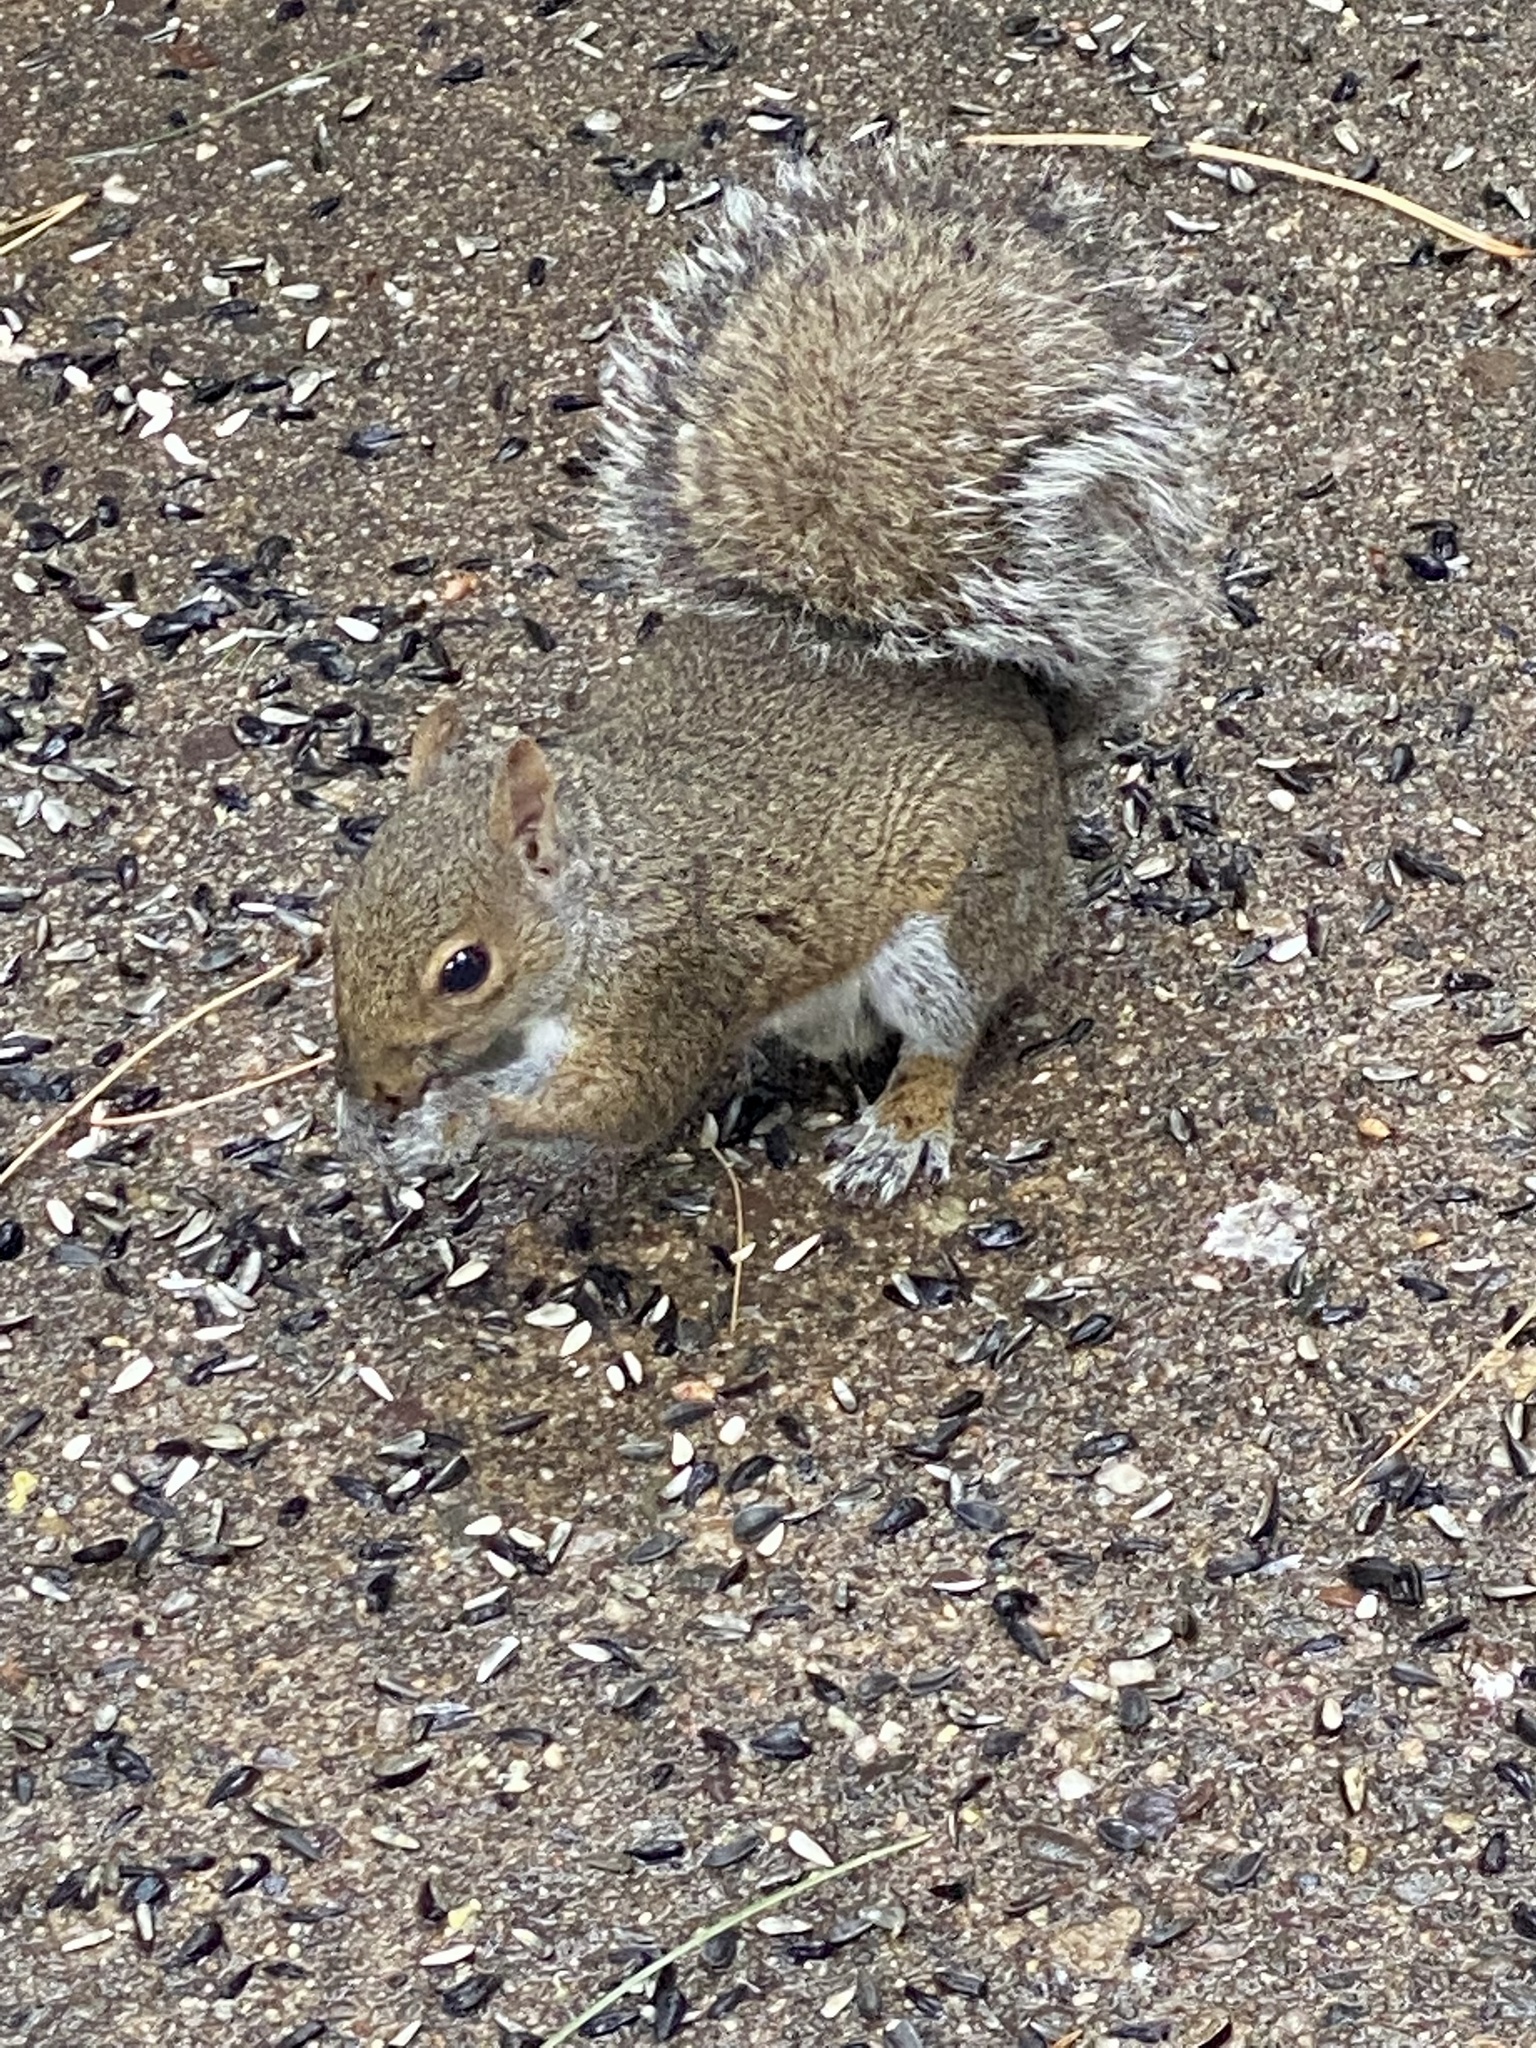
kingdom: Animalia
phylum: Chordata
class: Mammalia
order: Rodentia
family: Sciuridae
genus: Sciurus
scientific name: Sciurus carolinensis
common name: Eastern gray squirrel
